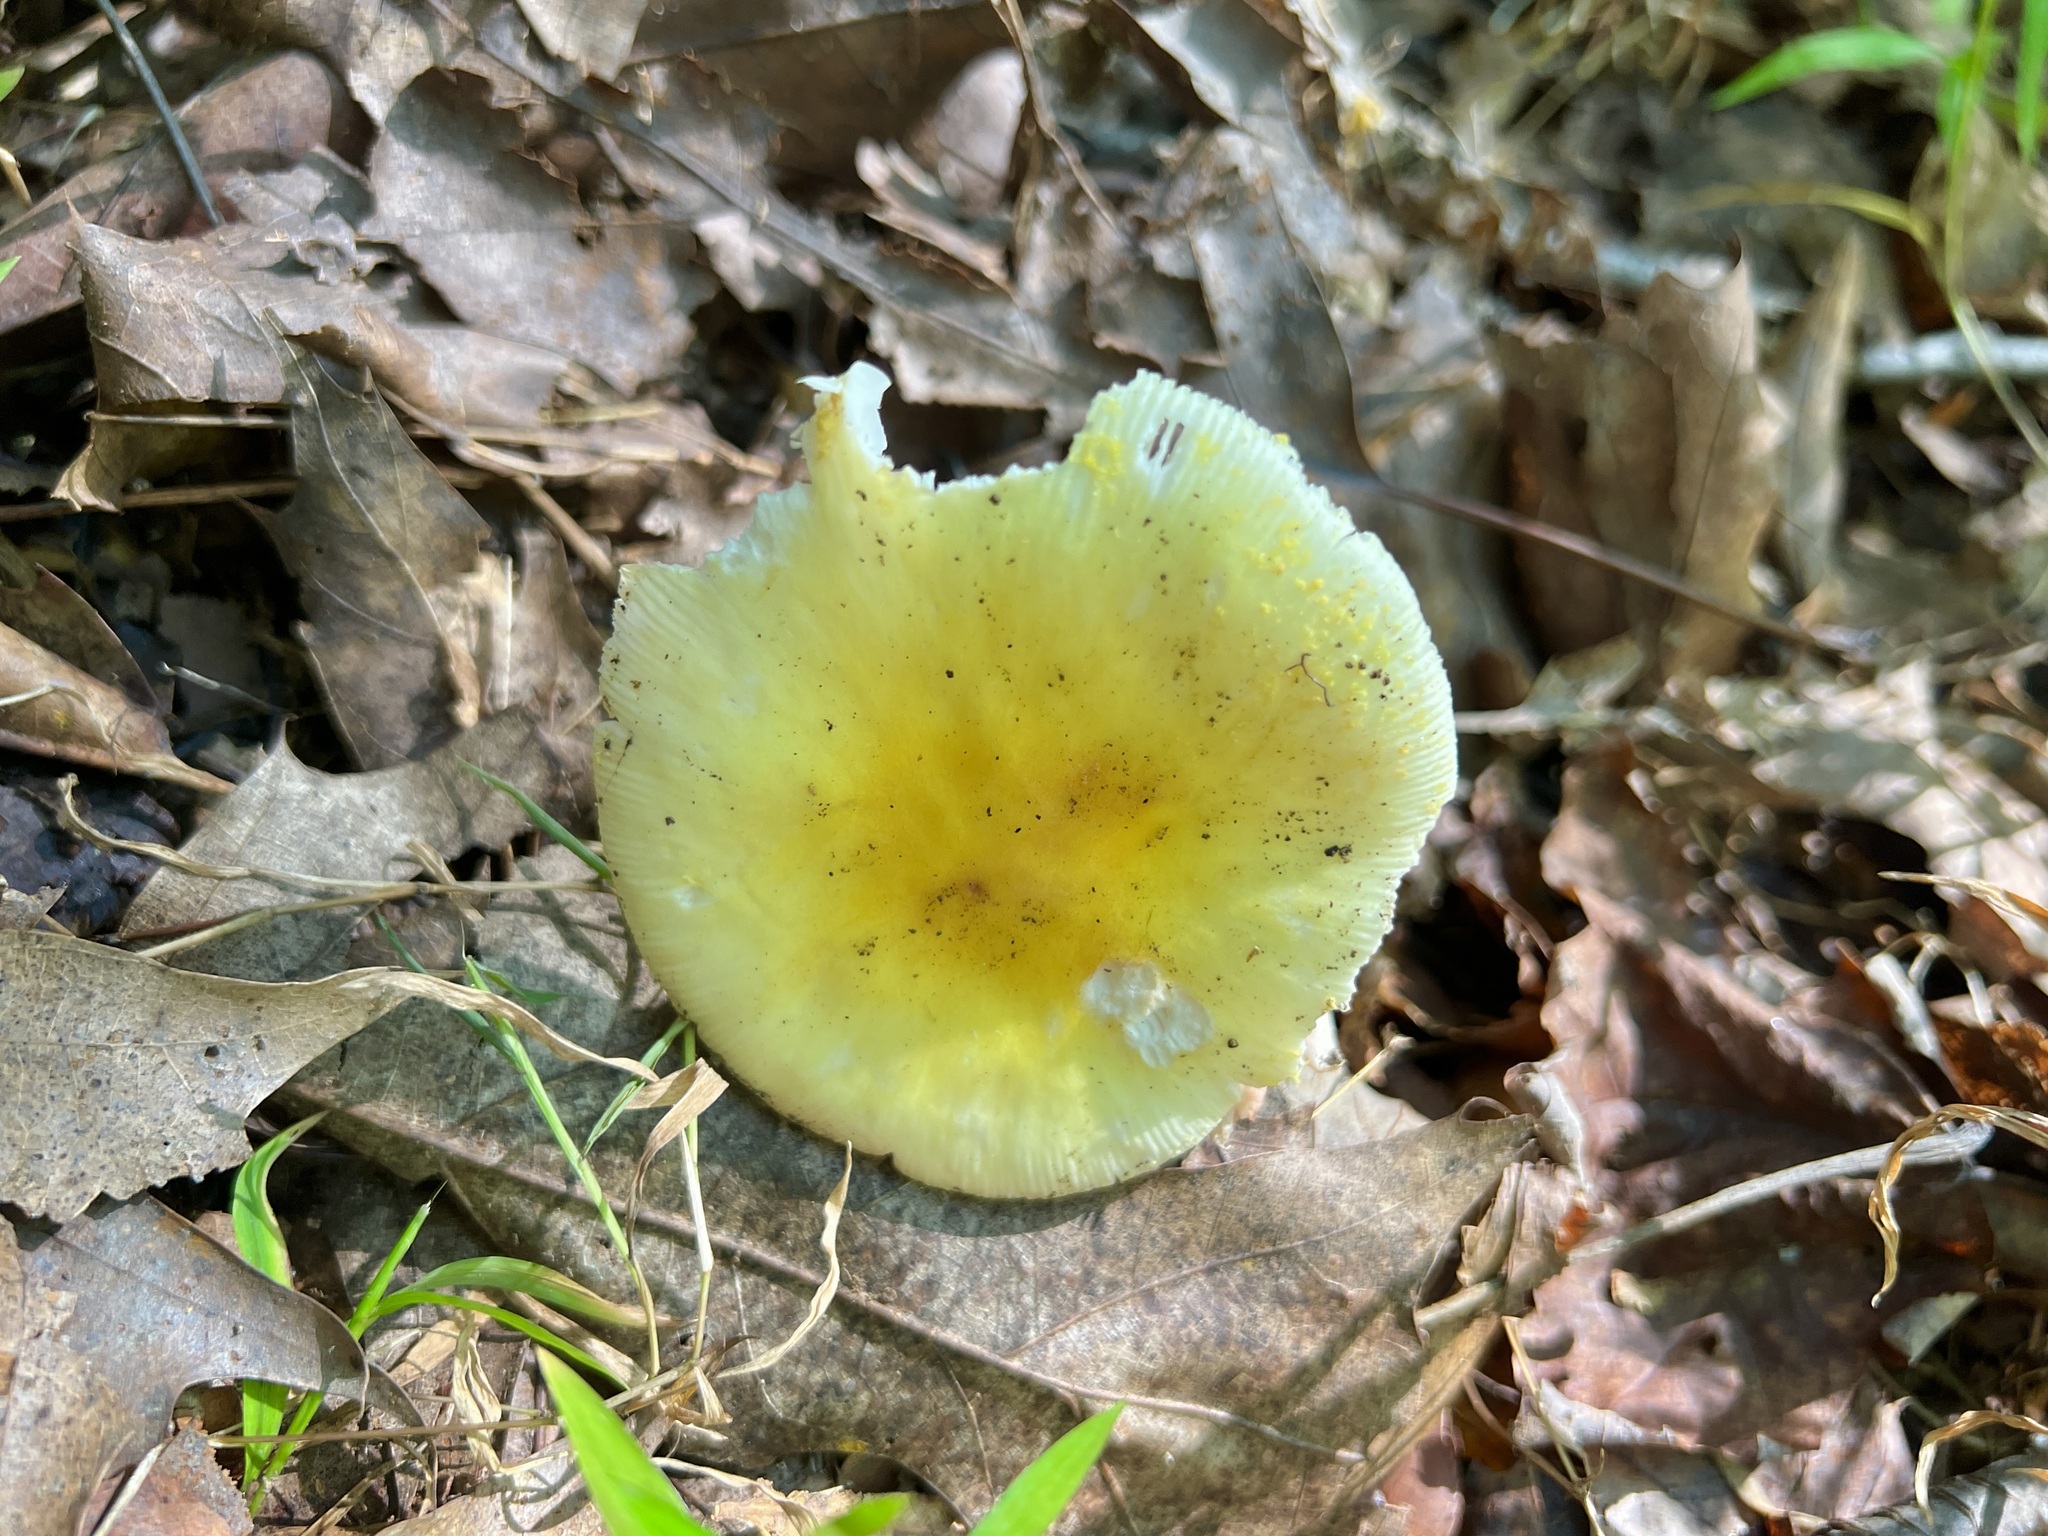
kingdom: Fungi
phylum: Basidiomycota
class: Agaricomycetes
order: Agaricales
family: Amanitaceae
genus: Amanita
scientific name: Amanita flavorubens
